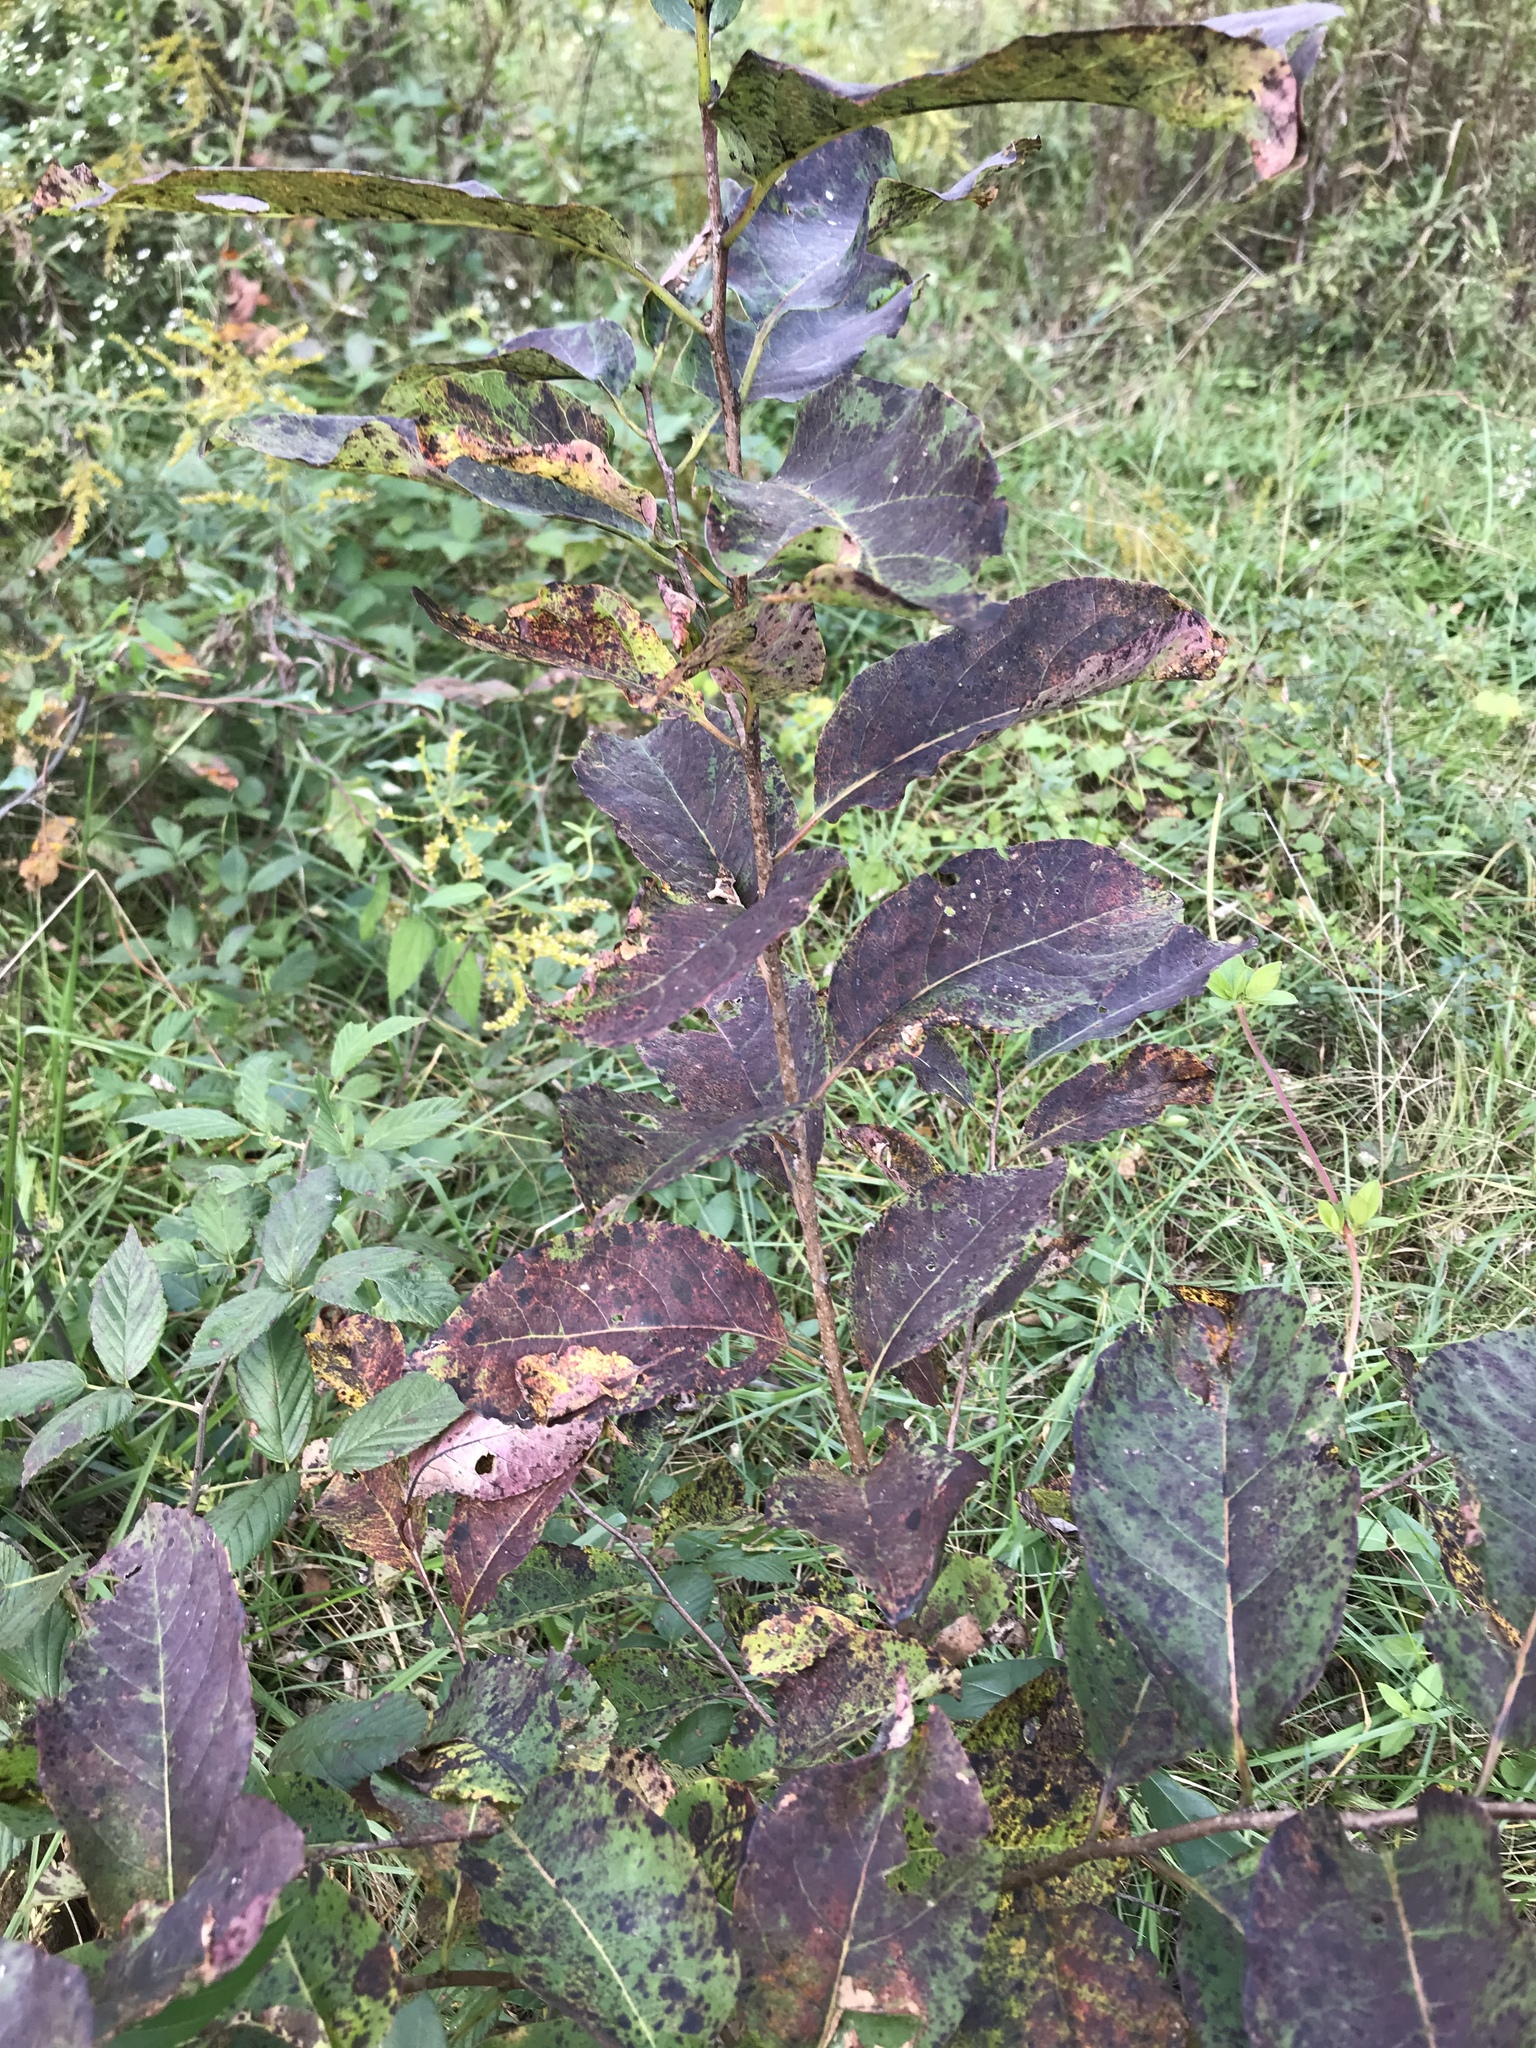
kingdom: Plantae
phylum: Tracheophyta
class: Magnoliopsida
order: Ericales
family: Ebenaceae
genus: Diospyros
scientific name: Diospyros virginiana
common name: Persimmon
